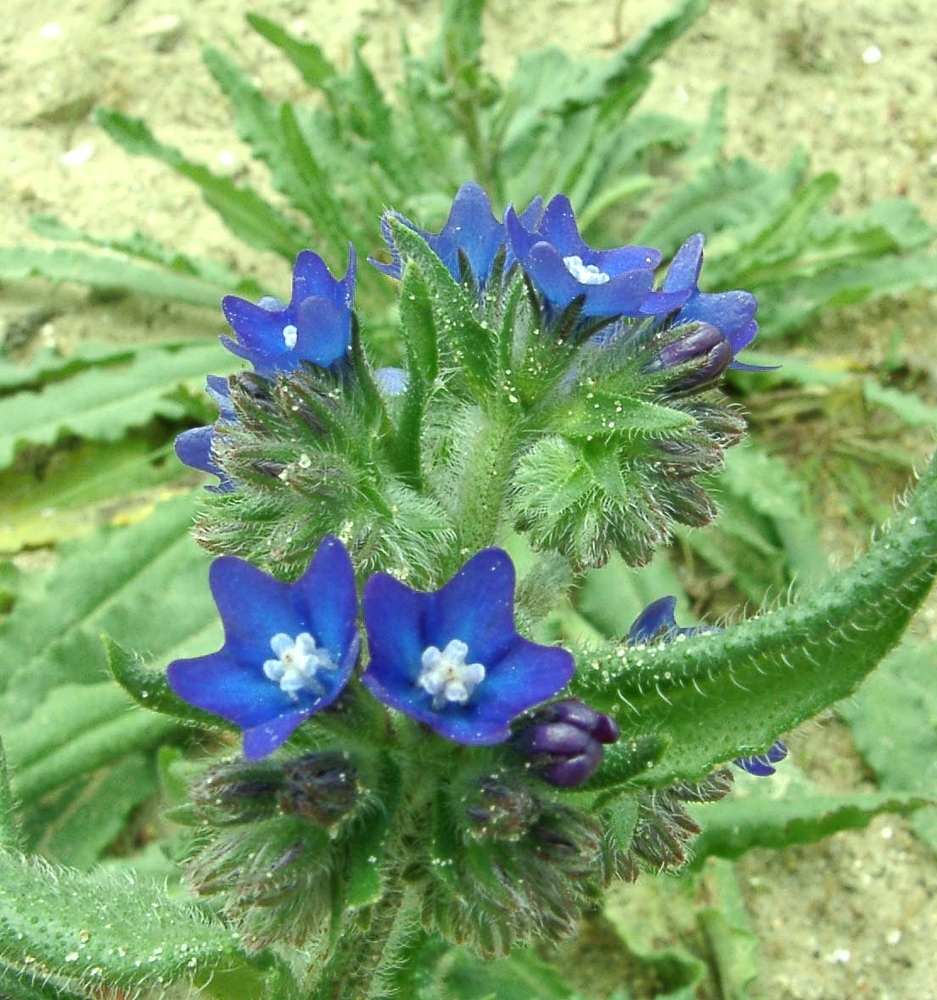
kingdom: Plantae
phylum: Tracheophyta
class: Magnoliopsida
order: Boraginales
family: Boraginaceae
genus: Anchusa
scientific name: Anchusa officinalis
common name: Alkanet
